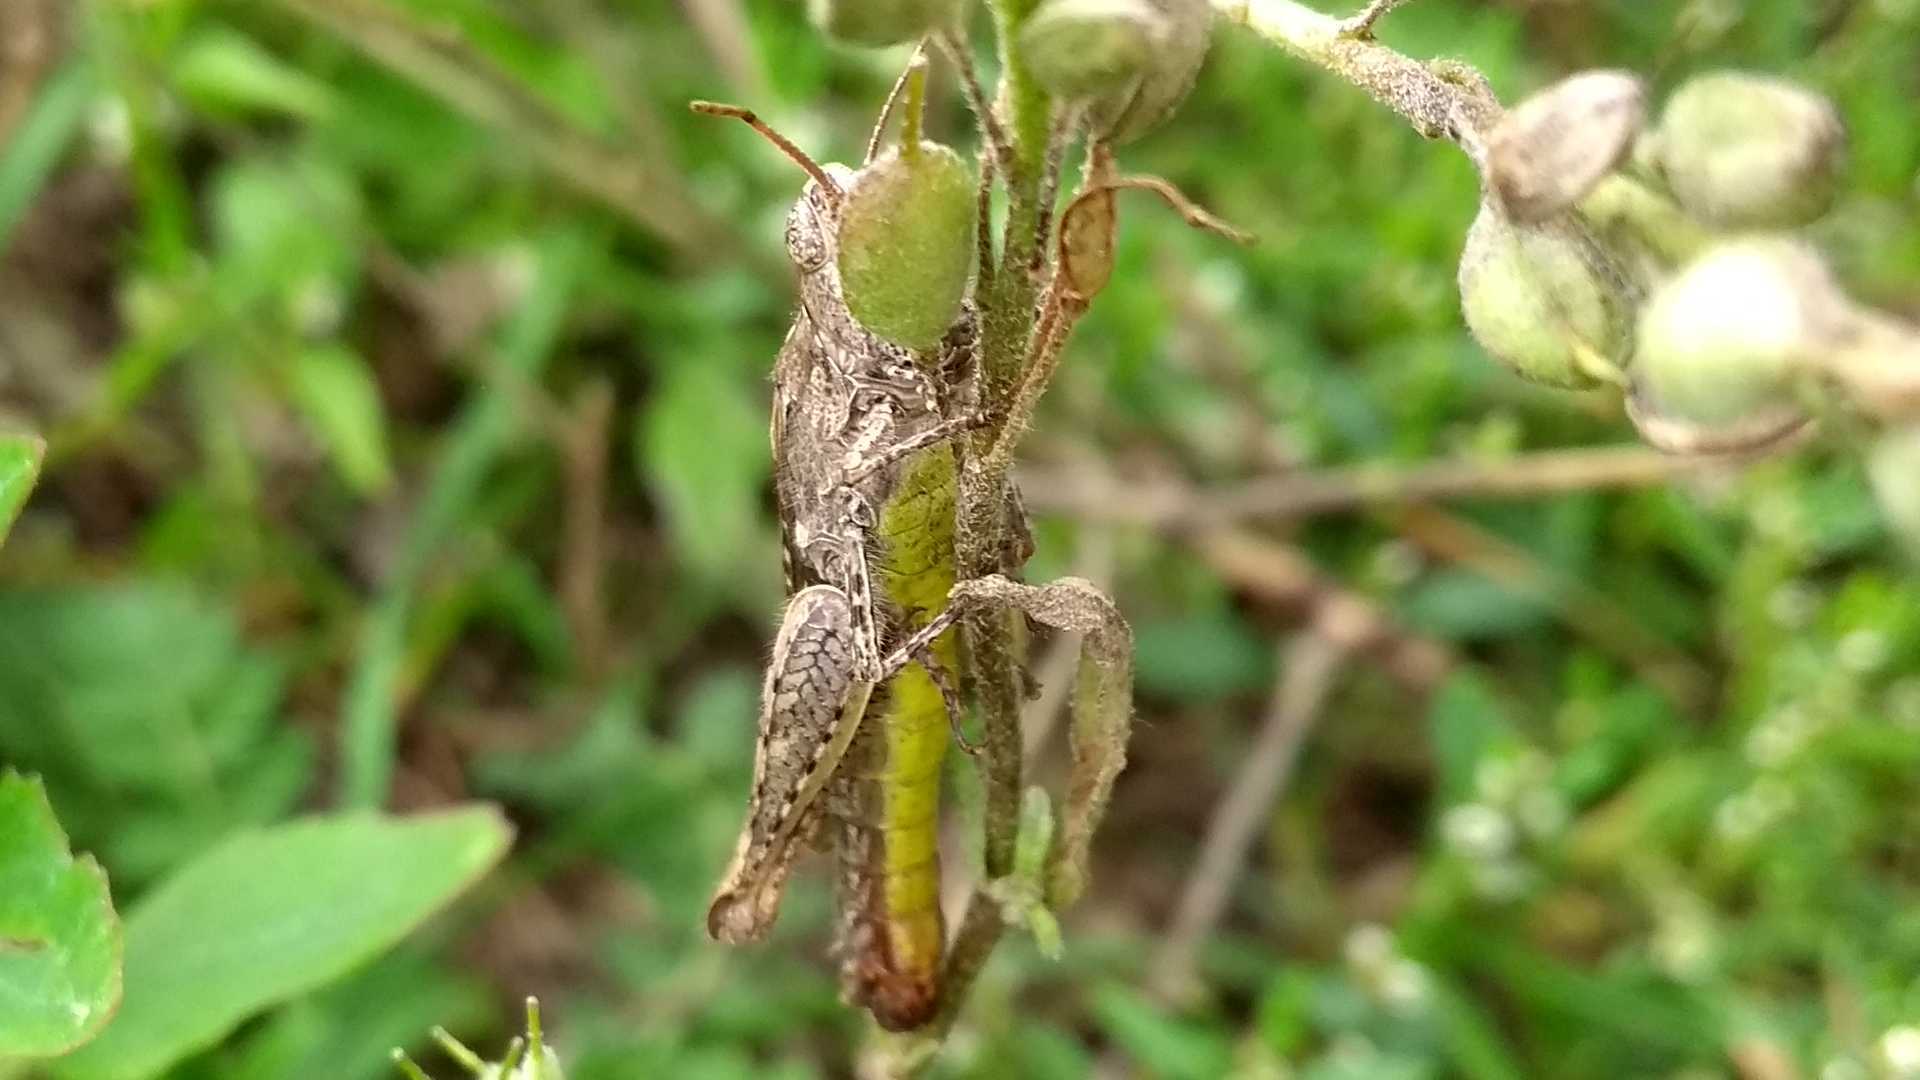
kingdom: Animalia
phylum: Arthropoda
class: Insecta
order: Orthoptera
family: Acrididae
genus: Glyptobothrus
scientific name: Glyptobothrus
